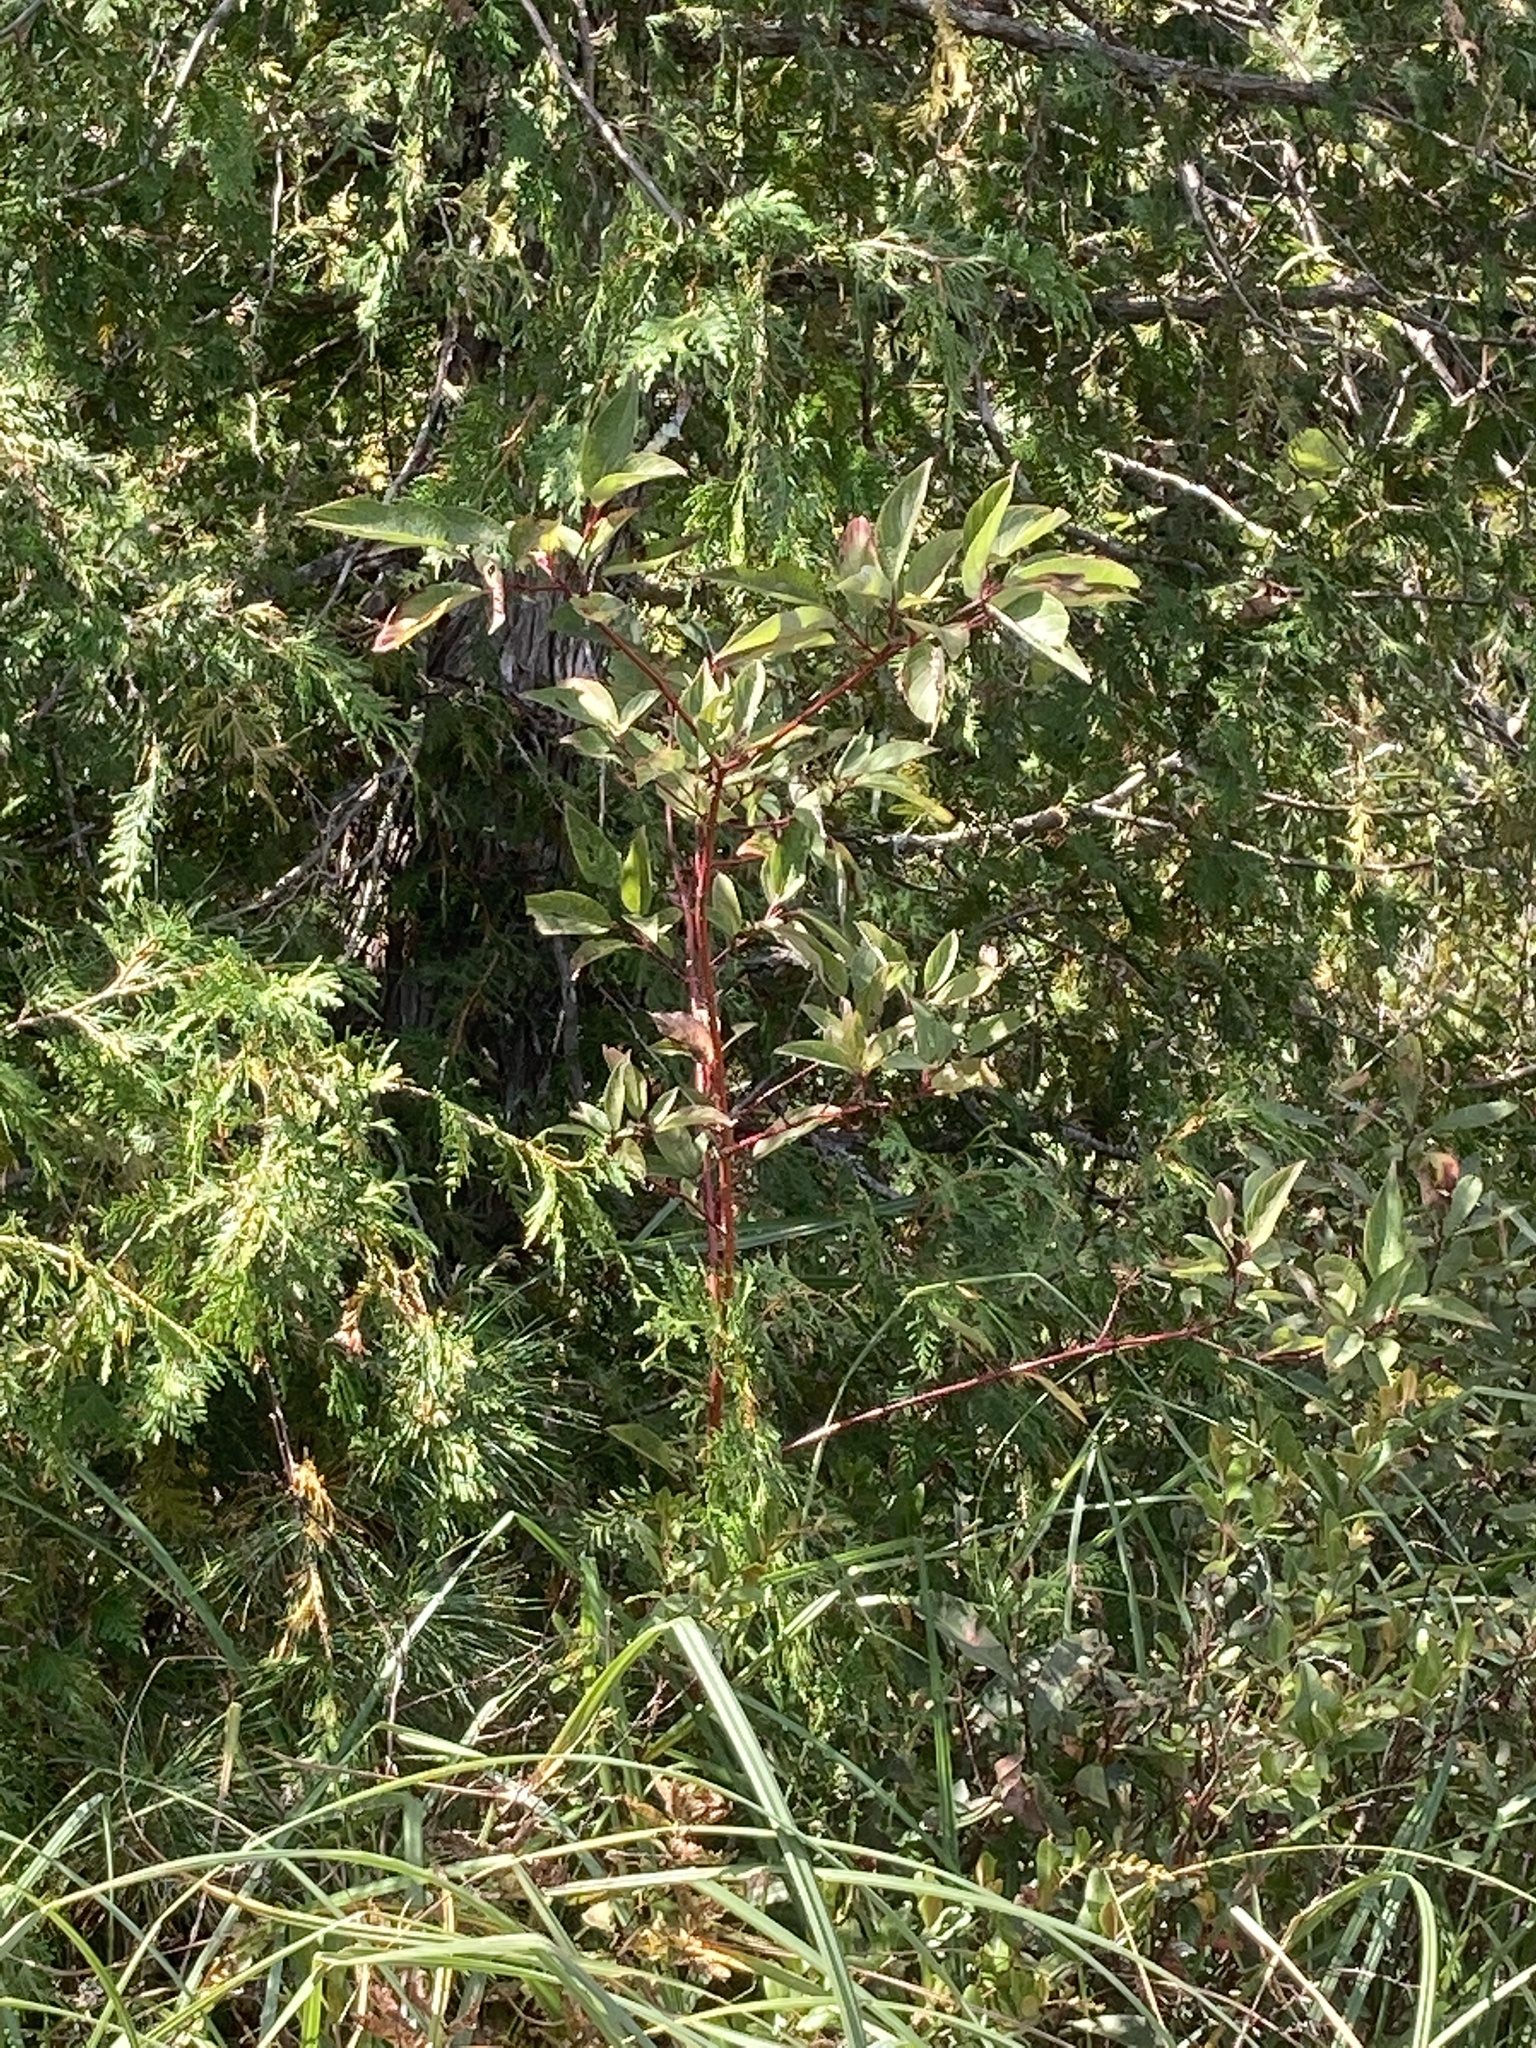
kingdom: Plantae
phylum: Tracheophyta
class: Magnoliopsida
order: Cornales
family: Cornaceae
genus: Cornus
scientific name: Cornus sericea
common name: Red-osier dogwood
